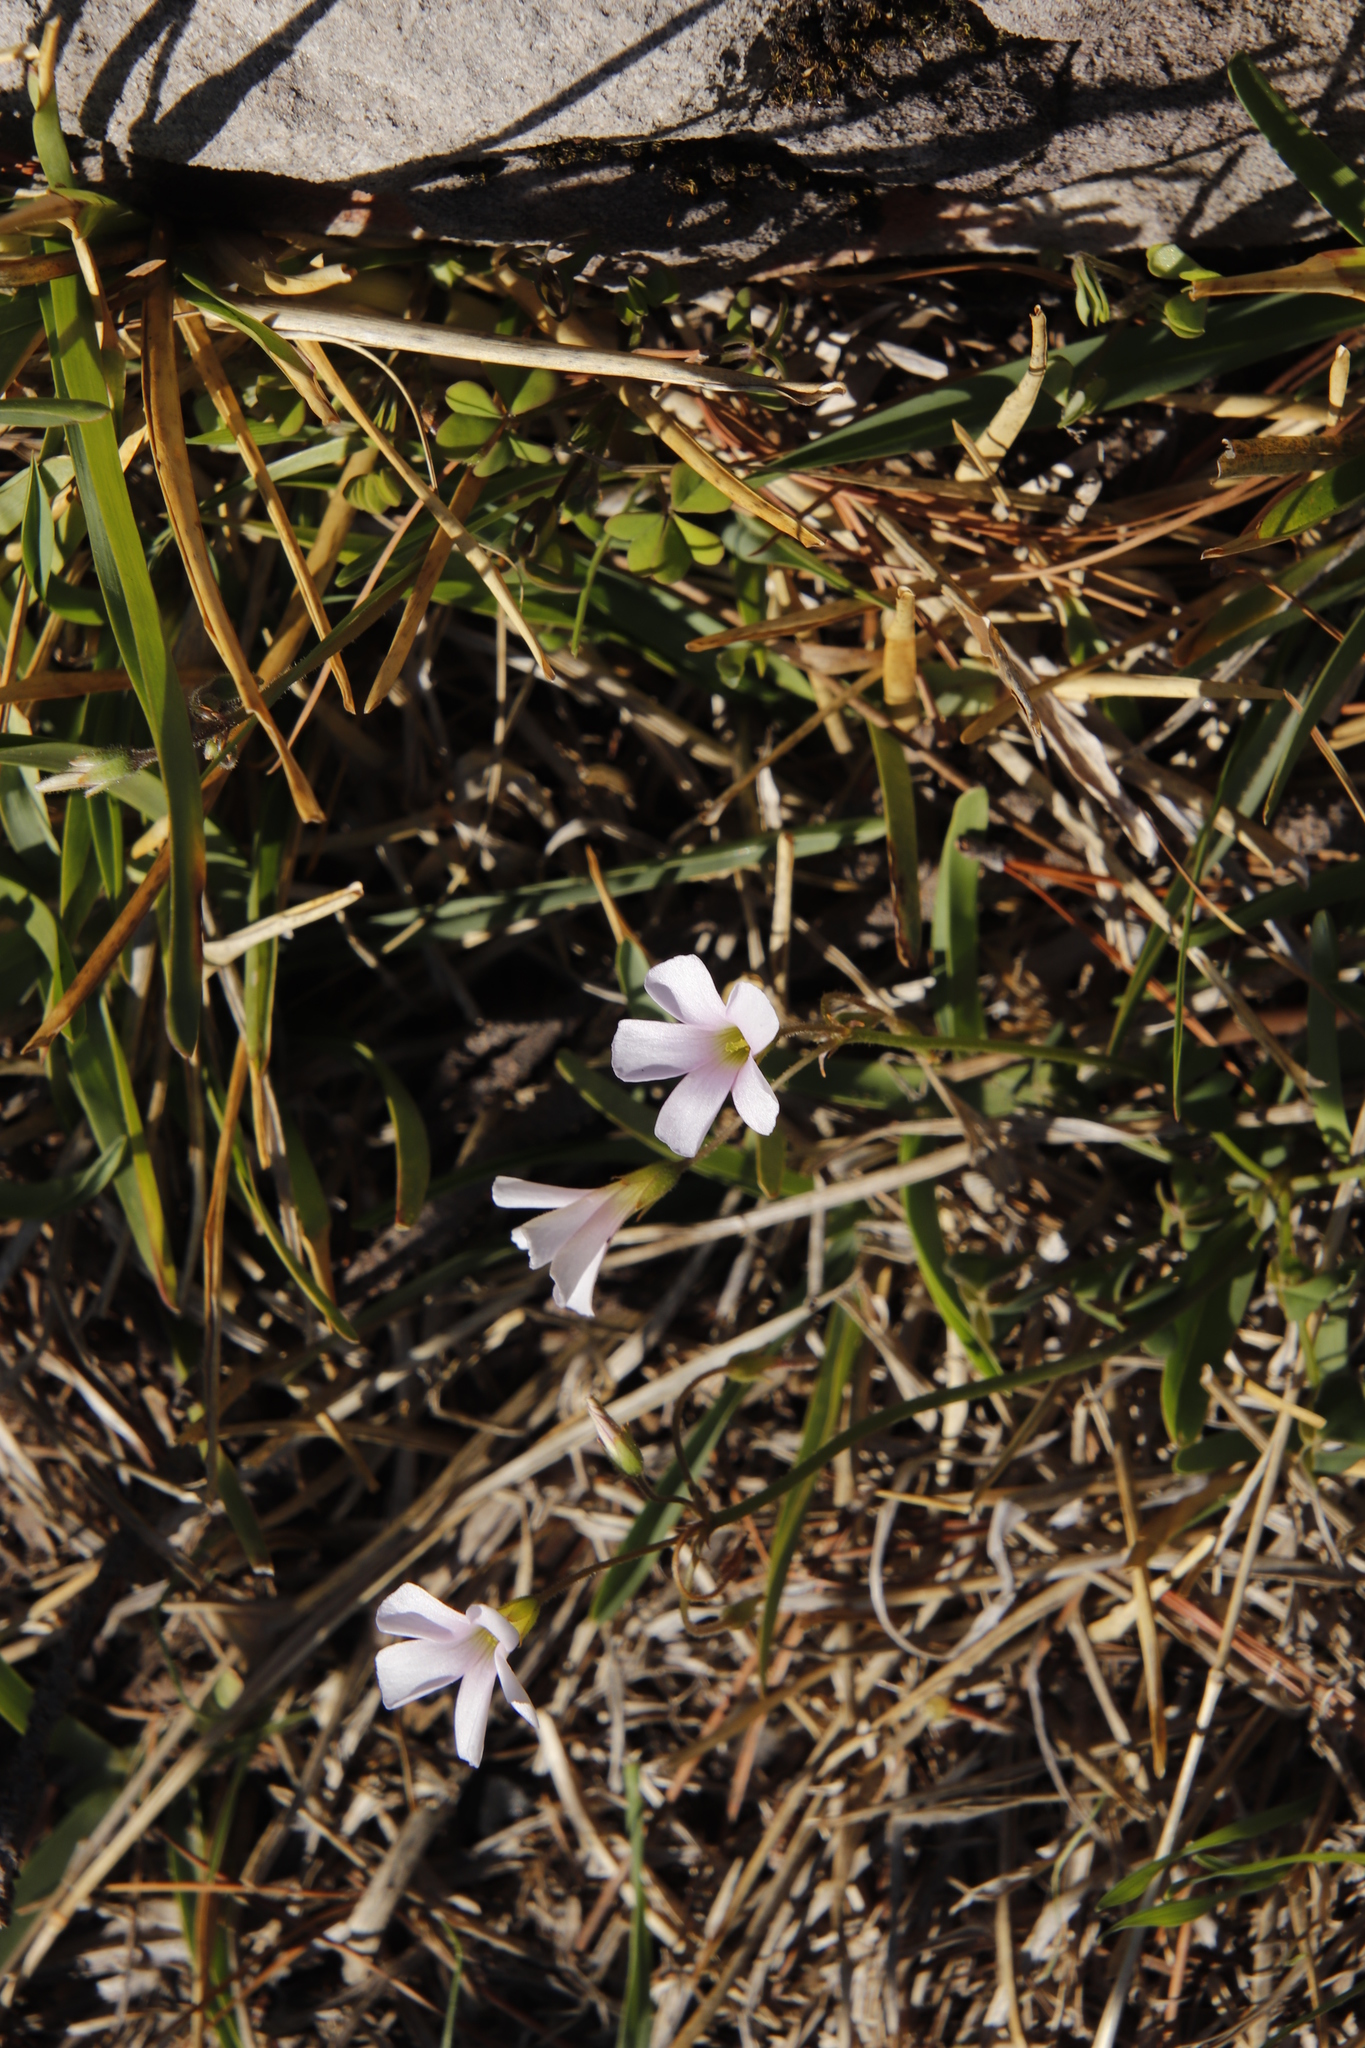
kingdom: Plantae
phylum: Tracheophyta
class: Magnoliopsida
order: Oxalidales
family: Oxalidaceae
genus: Oxalis
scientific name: Oxalis
